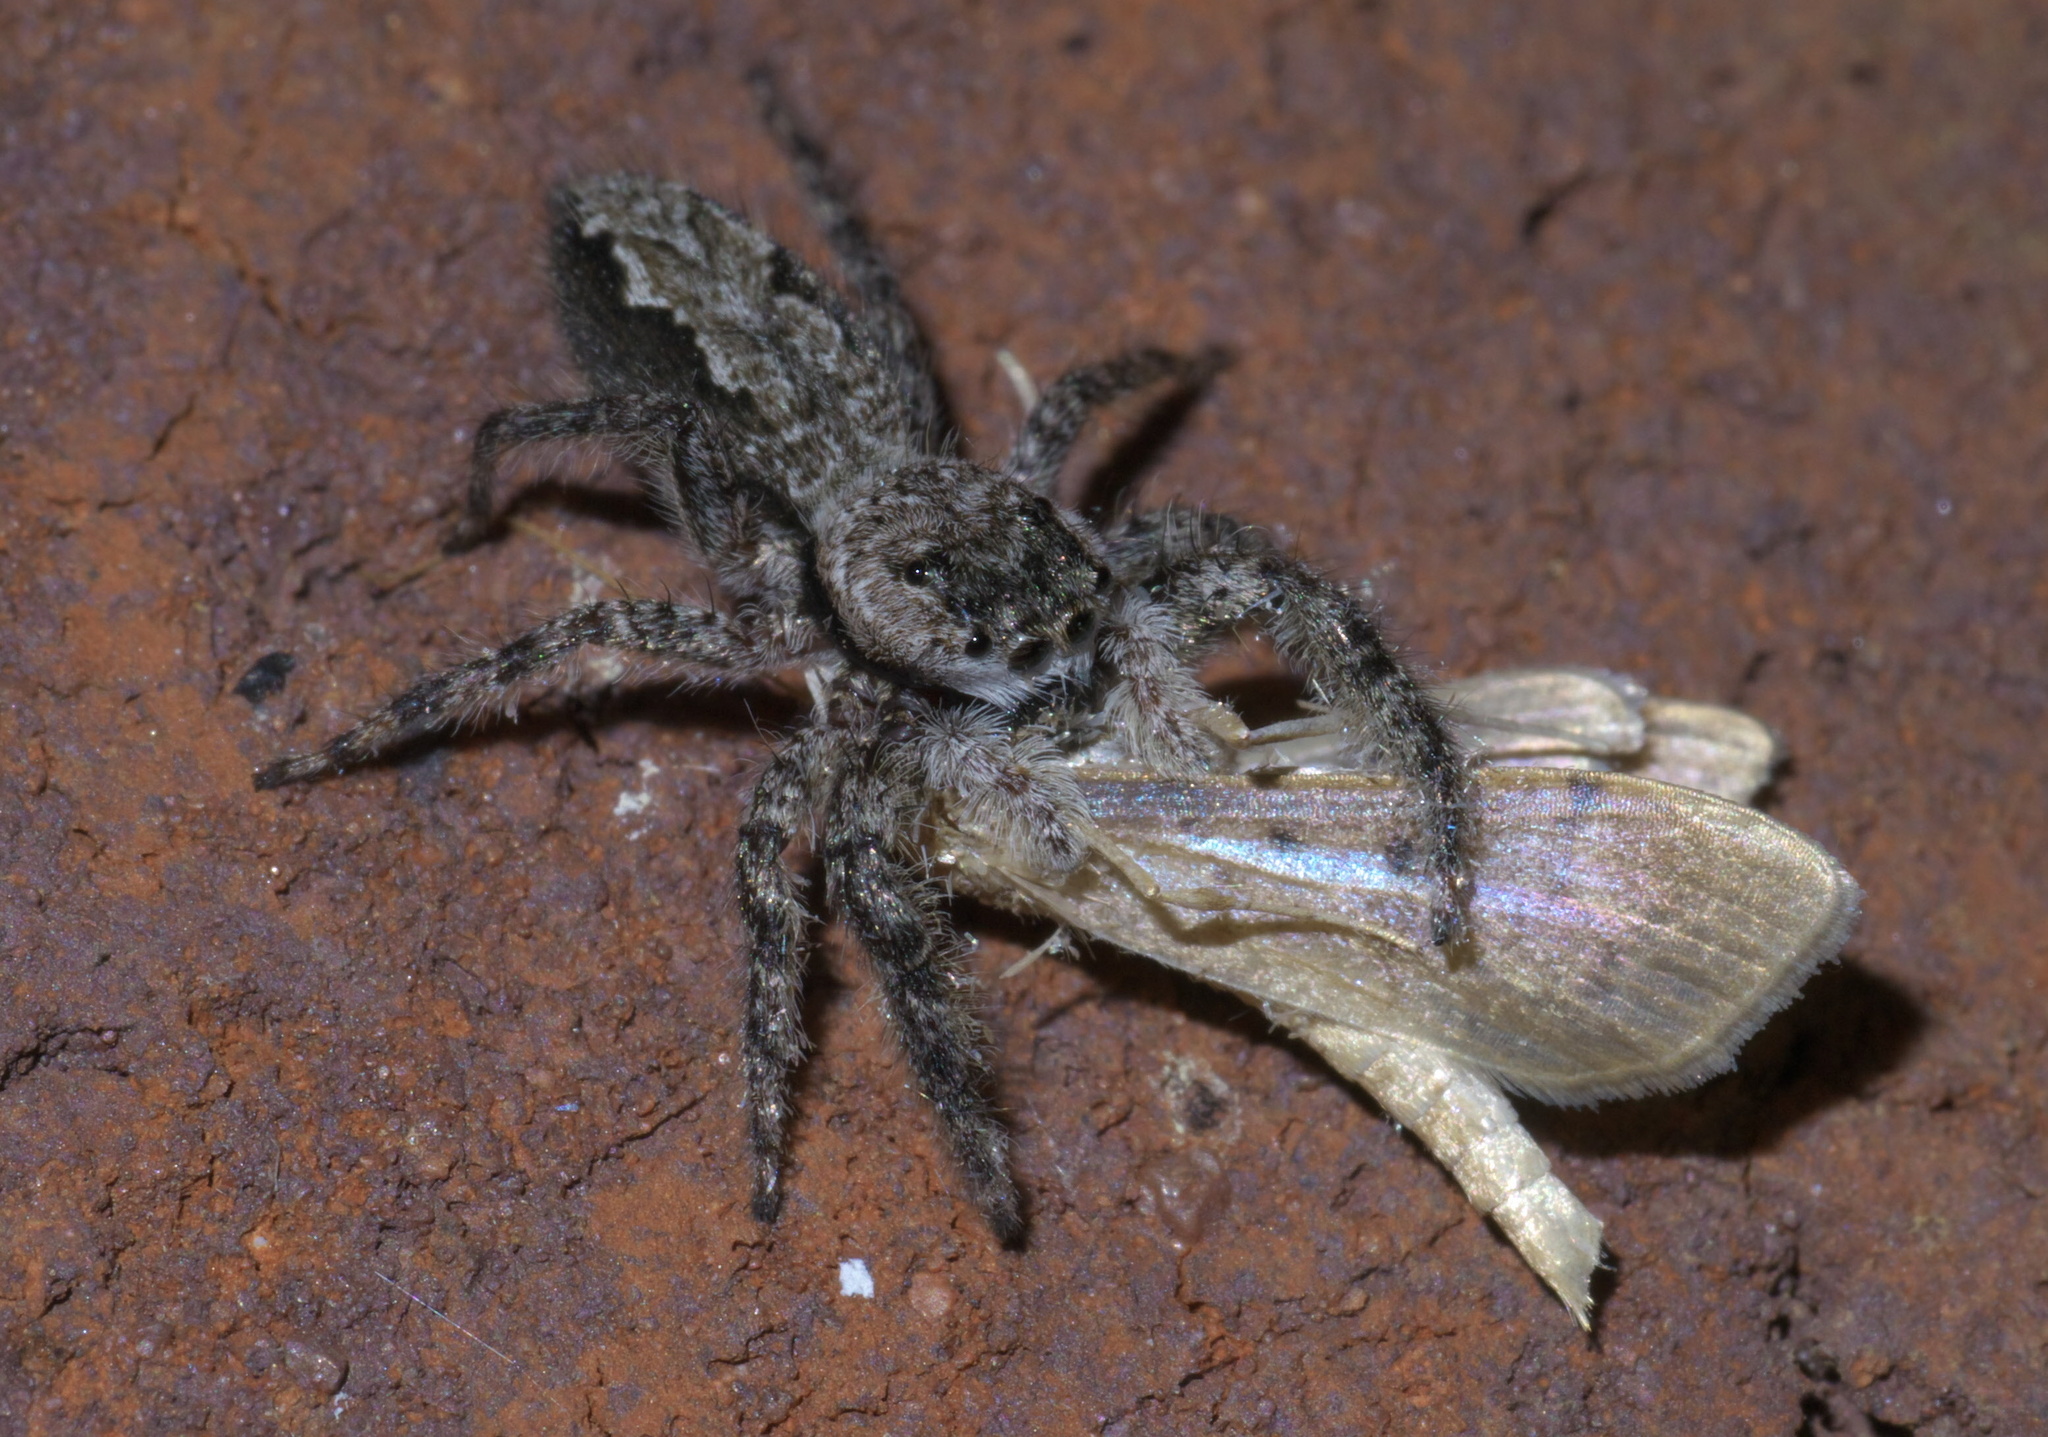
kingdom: Animalia
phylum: Arthropoda
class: Arachnida
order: Araneae
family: Salticidae
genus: Platycryptus
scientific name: Platycryptus undatus
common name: Tan jumping spider
